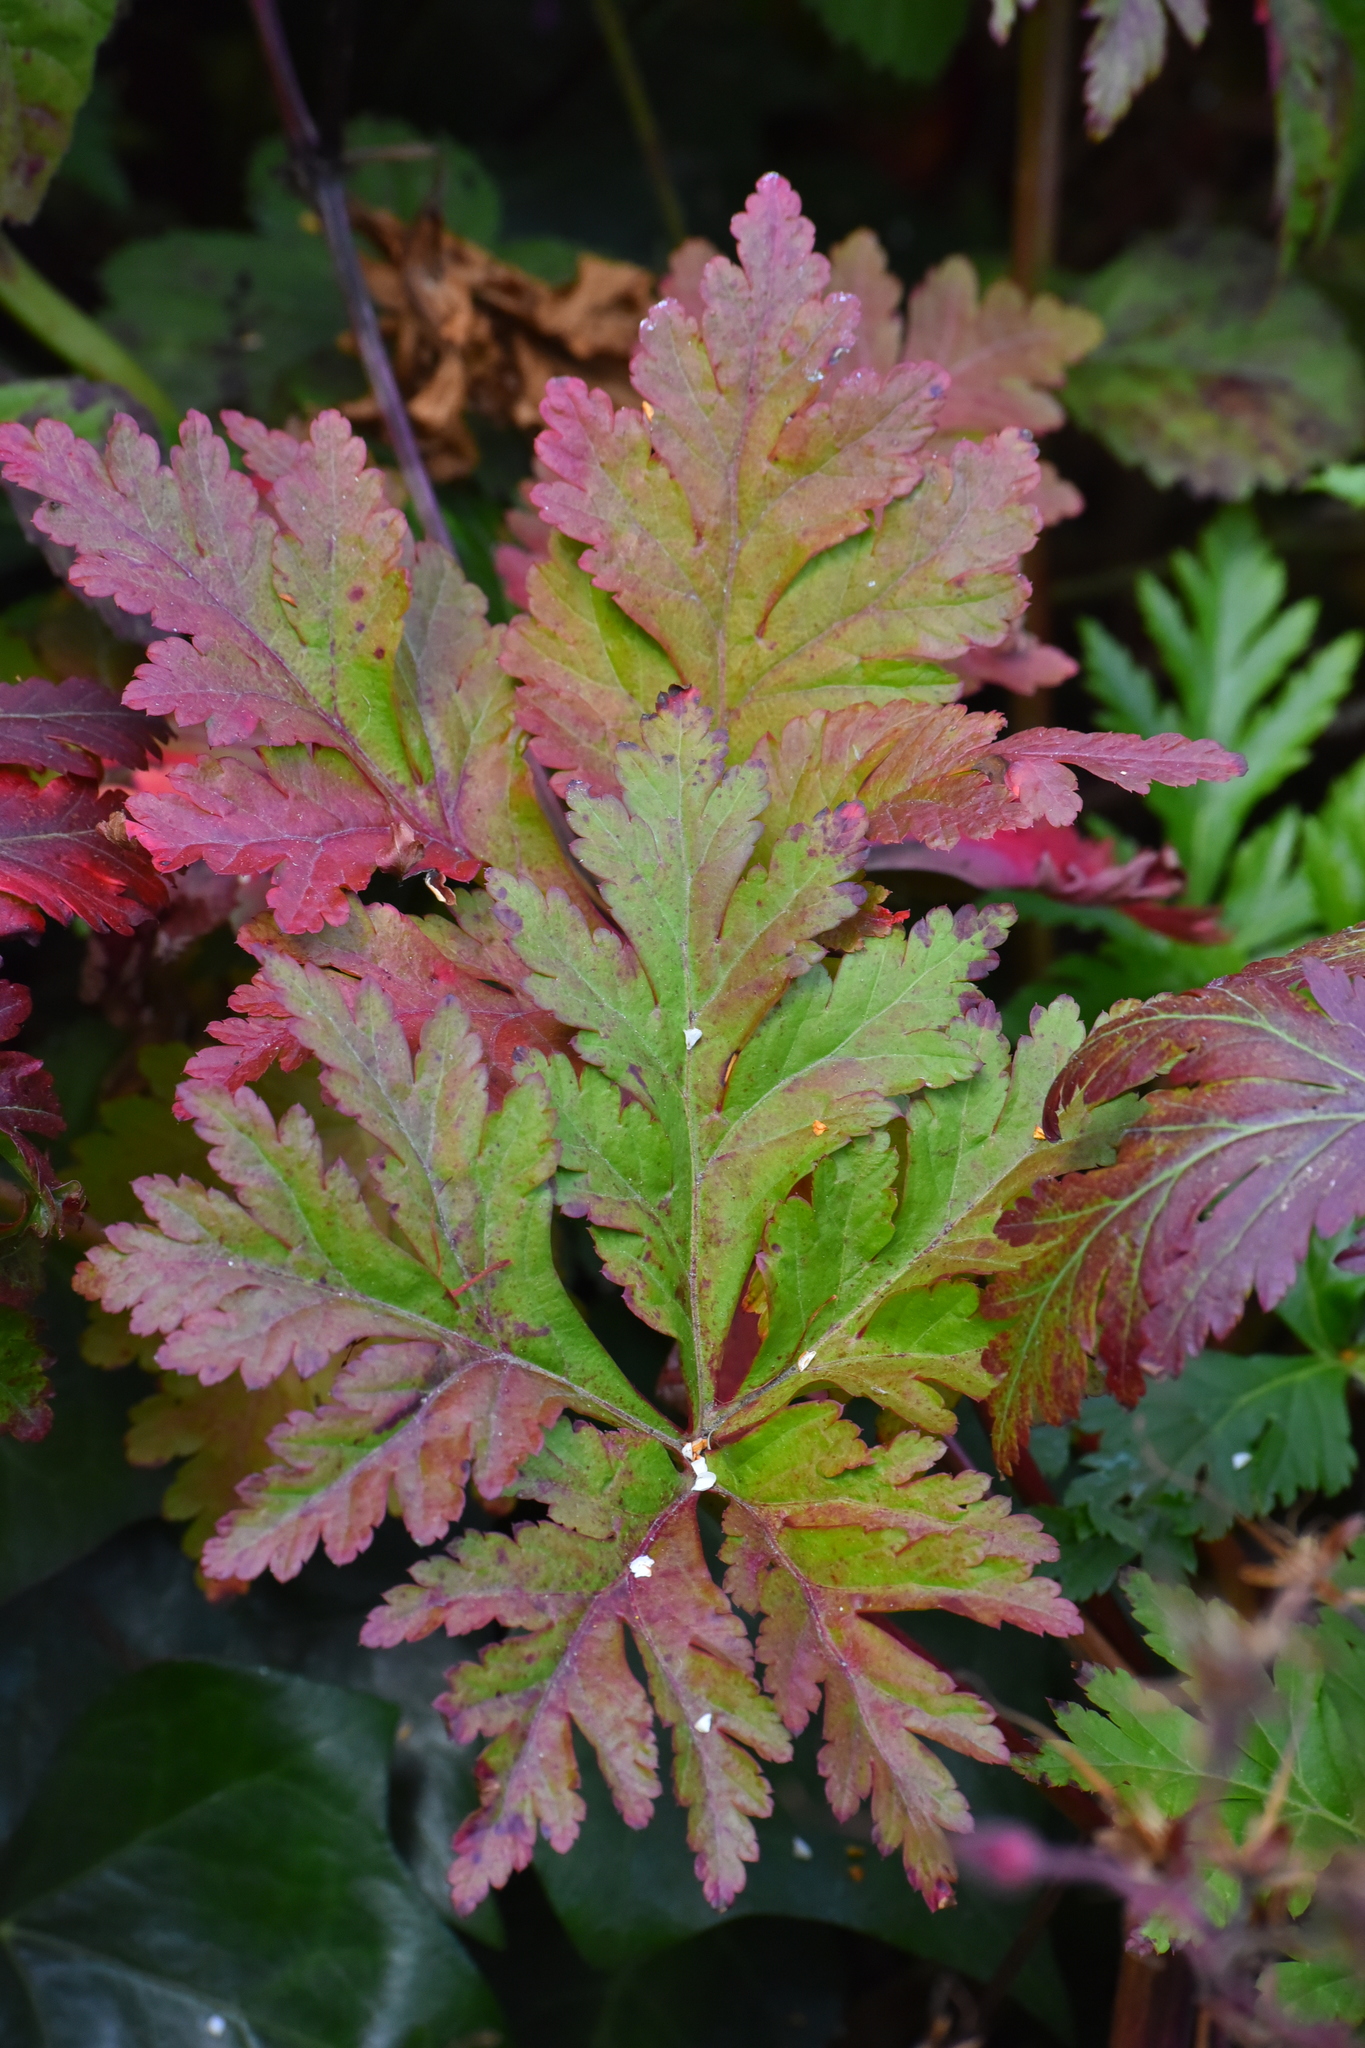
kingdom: Plantae
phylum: Tracheophyta
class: Magnoliopsida
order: Geraniales
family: Geraniaceae
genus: Geranium
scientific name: Geranium reuteri
